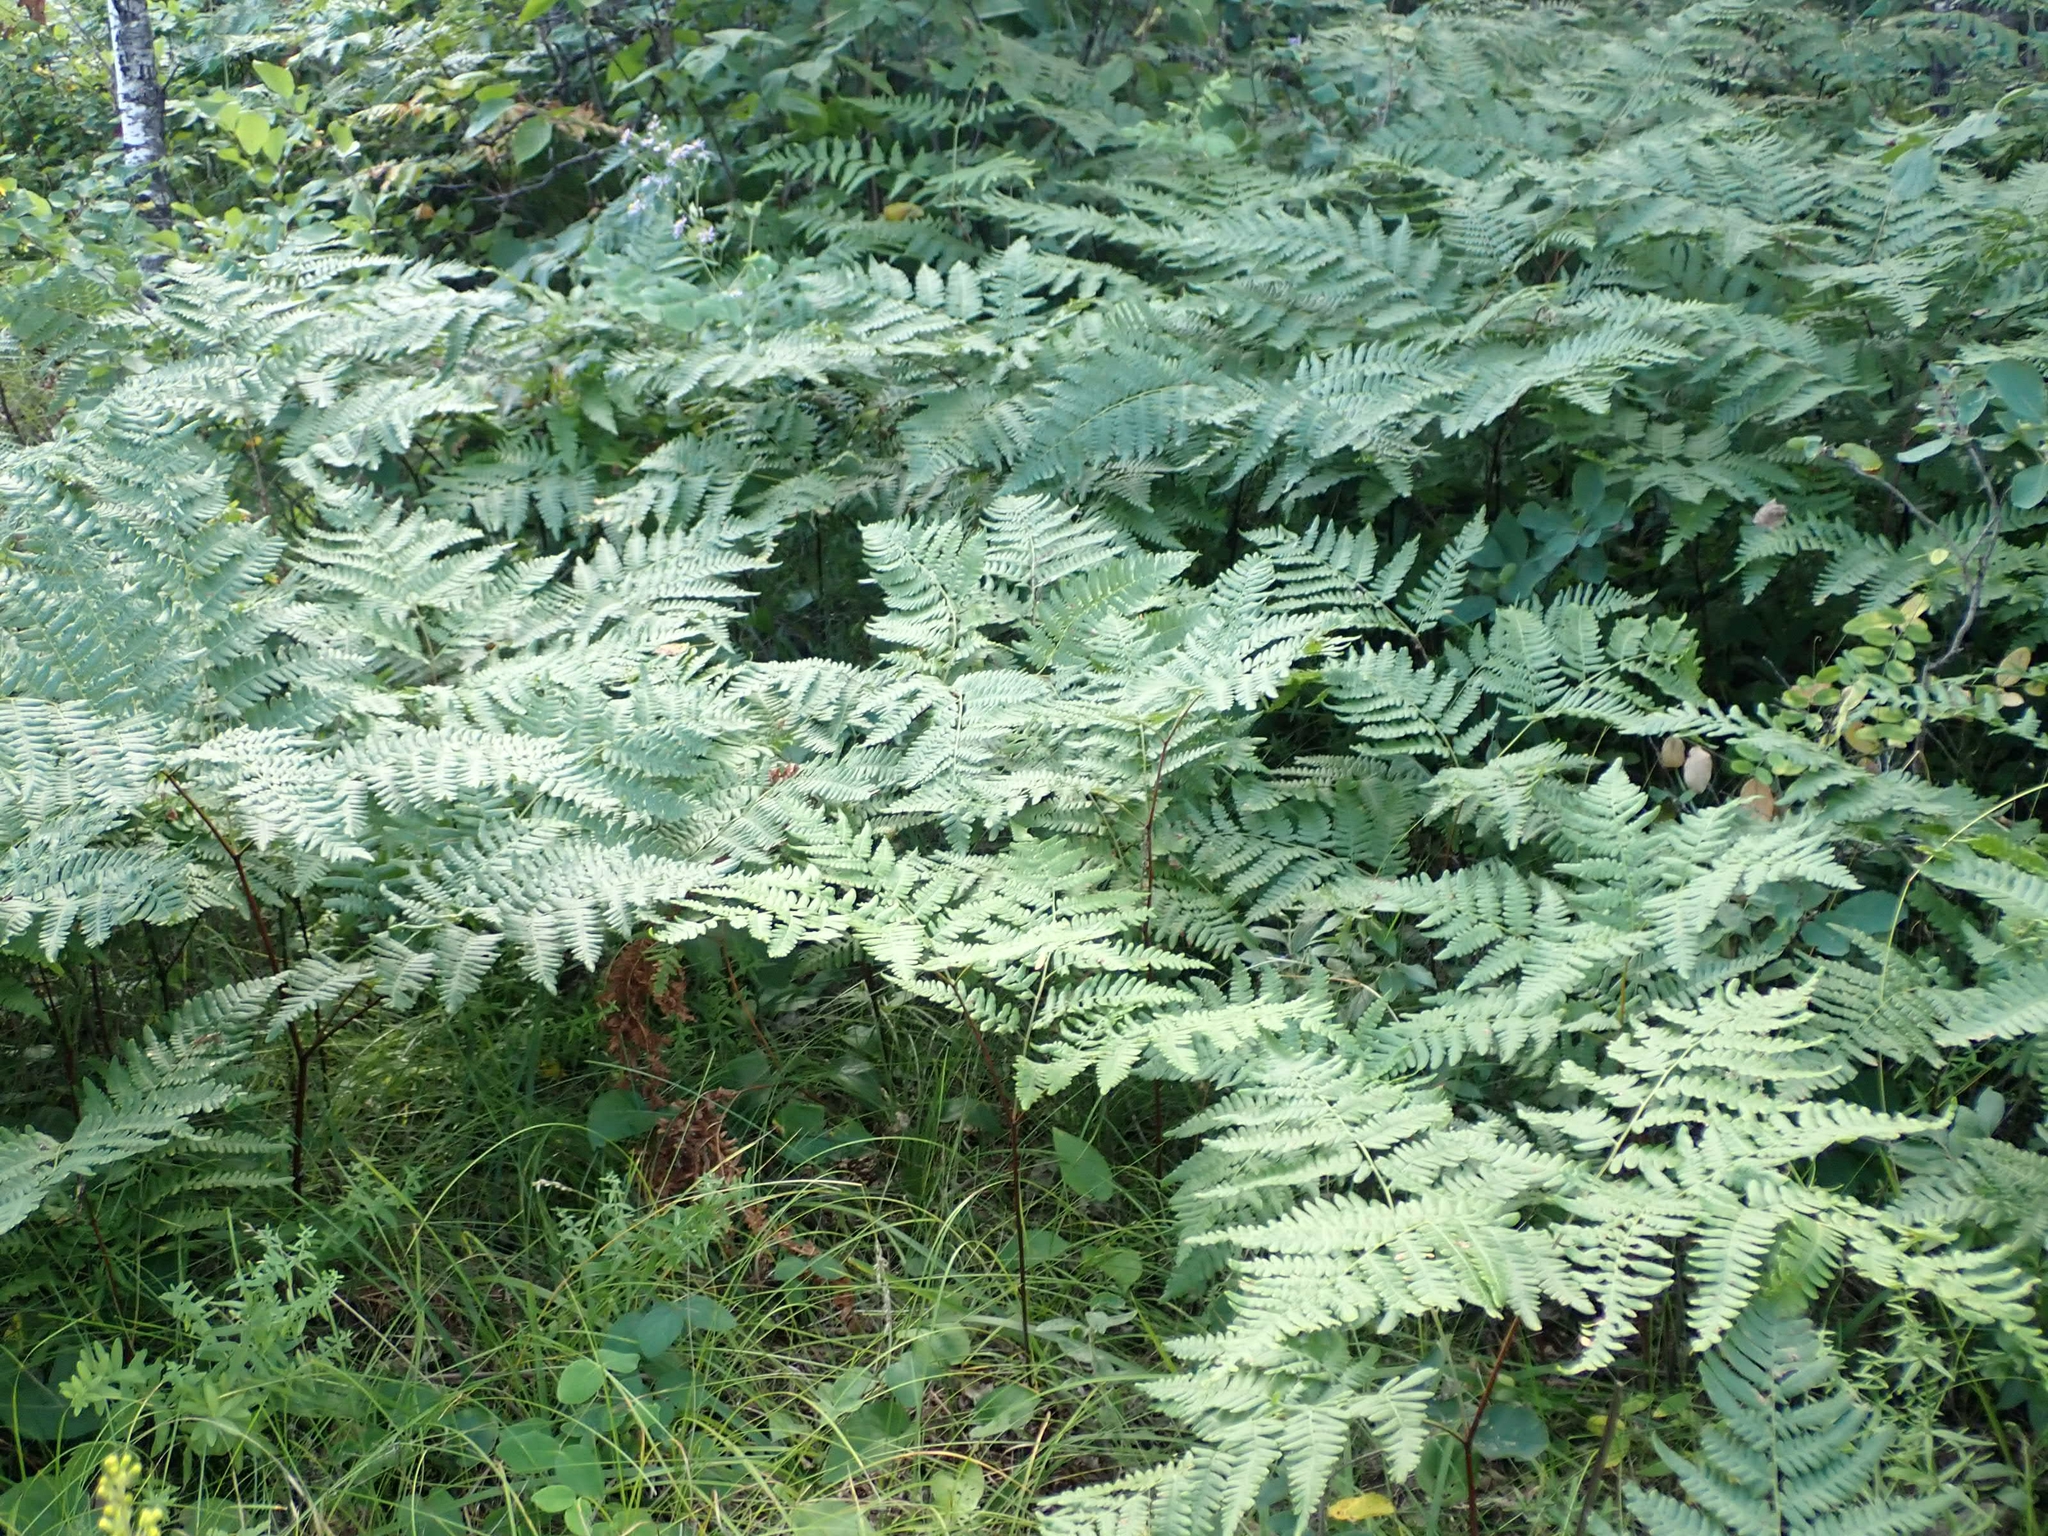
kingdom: Plantae
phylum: Tracheophyta
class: Polypodiopsida
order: Polypodiales
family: Dennstaedtiaceae
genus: Pteridium
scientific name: Pteridium aquilinum
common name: Bracken
